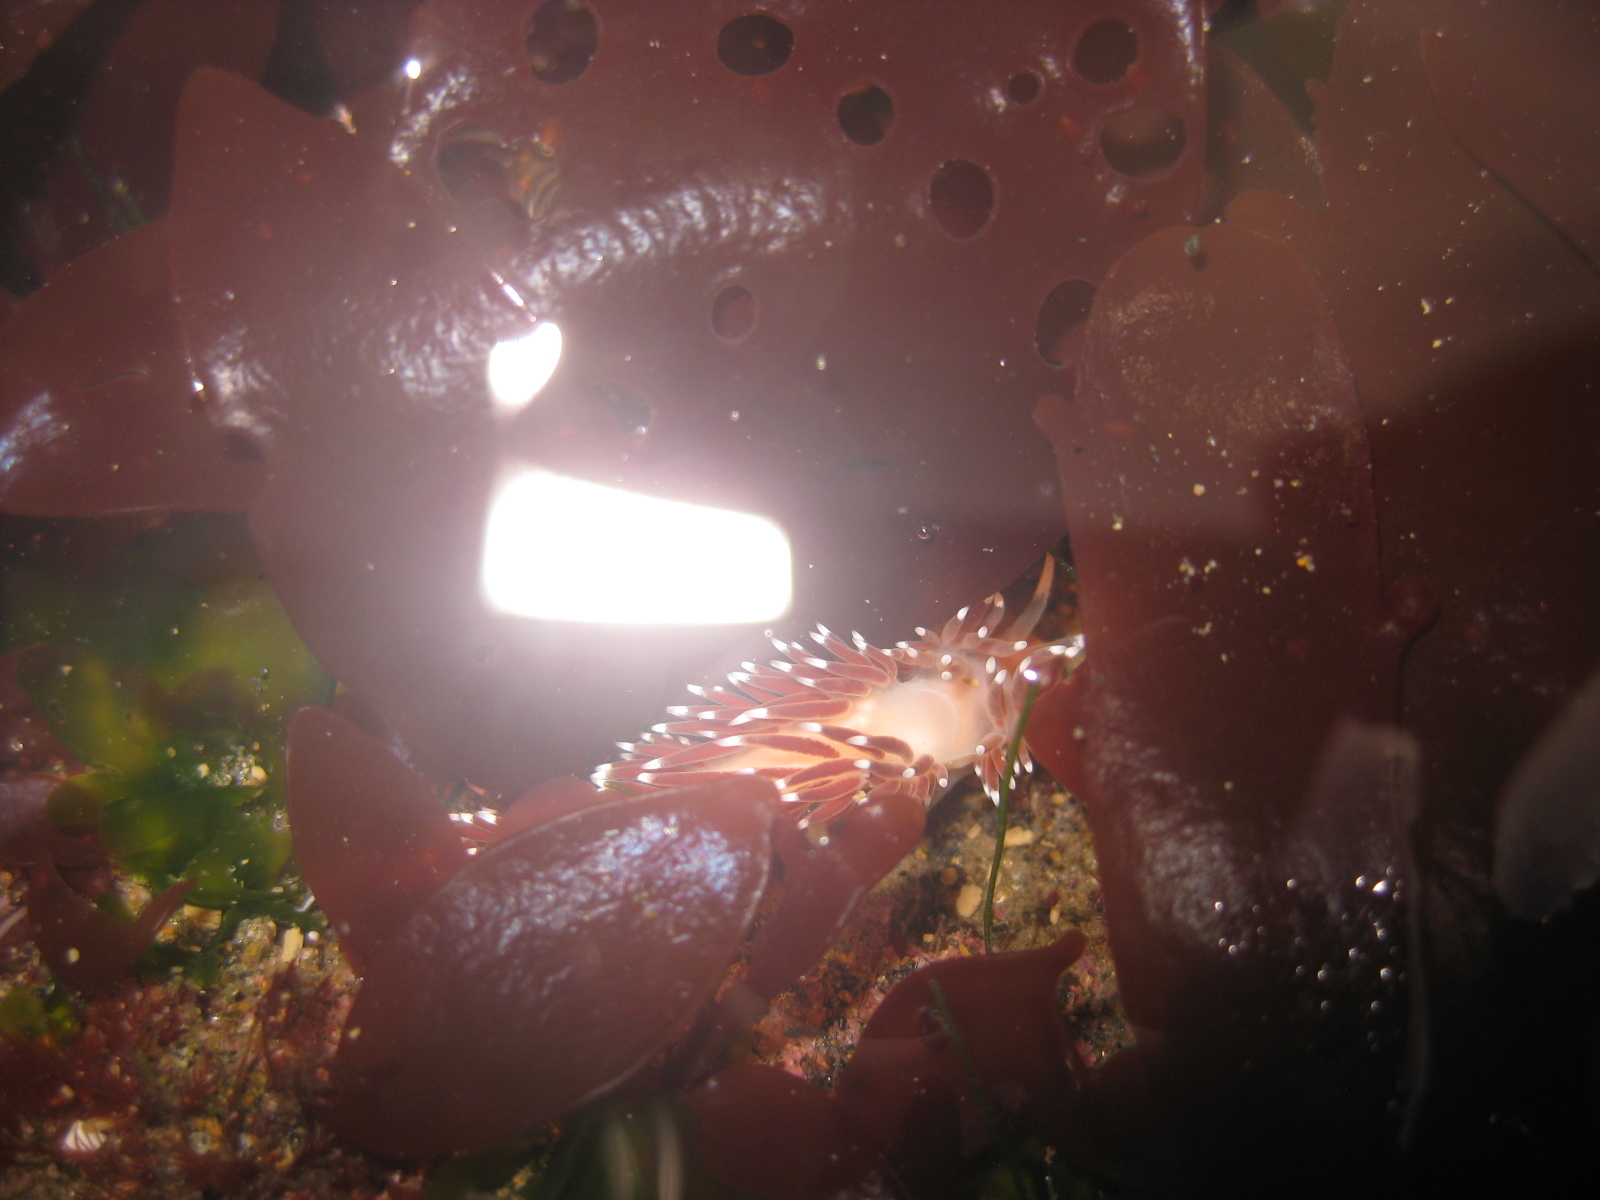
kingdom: Animalia
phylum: Mollusca
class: Gastropoda
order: Nudibranchia
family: Facelinidae
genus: Phidiana
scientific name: Phidiana milleri
